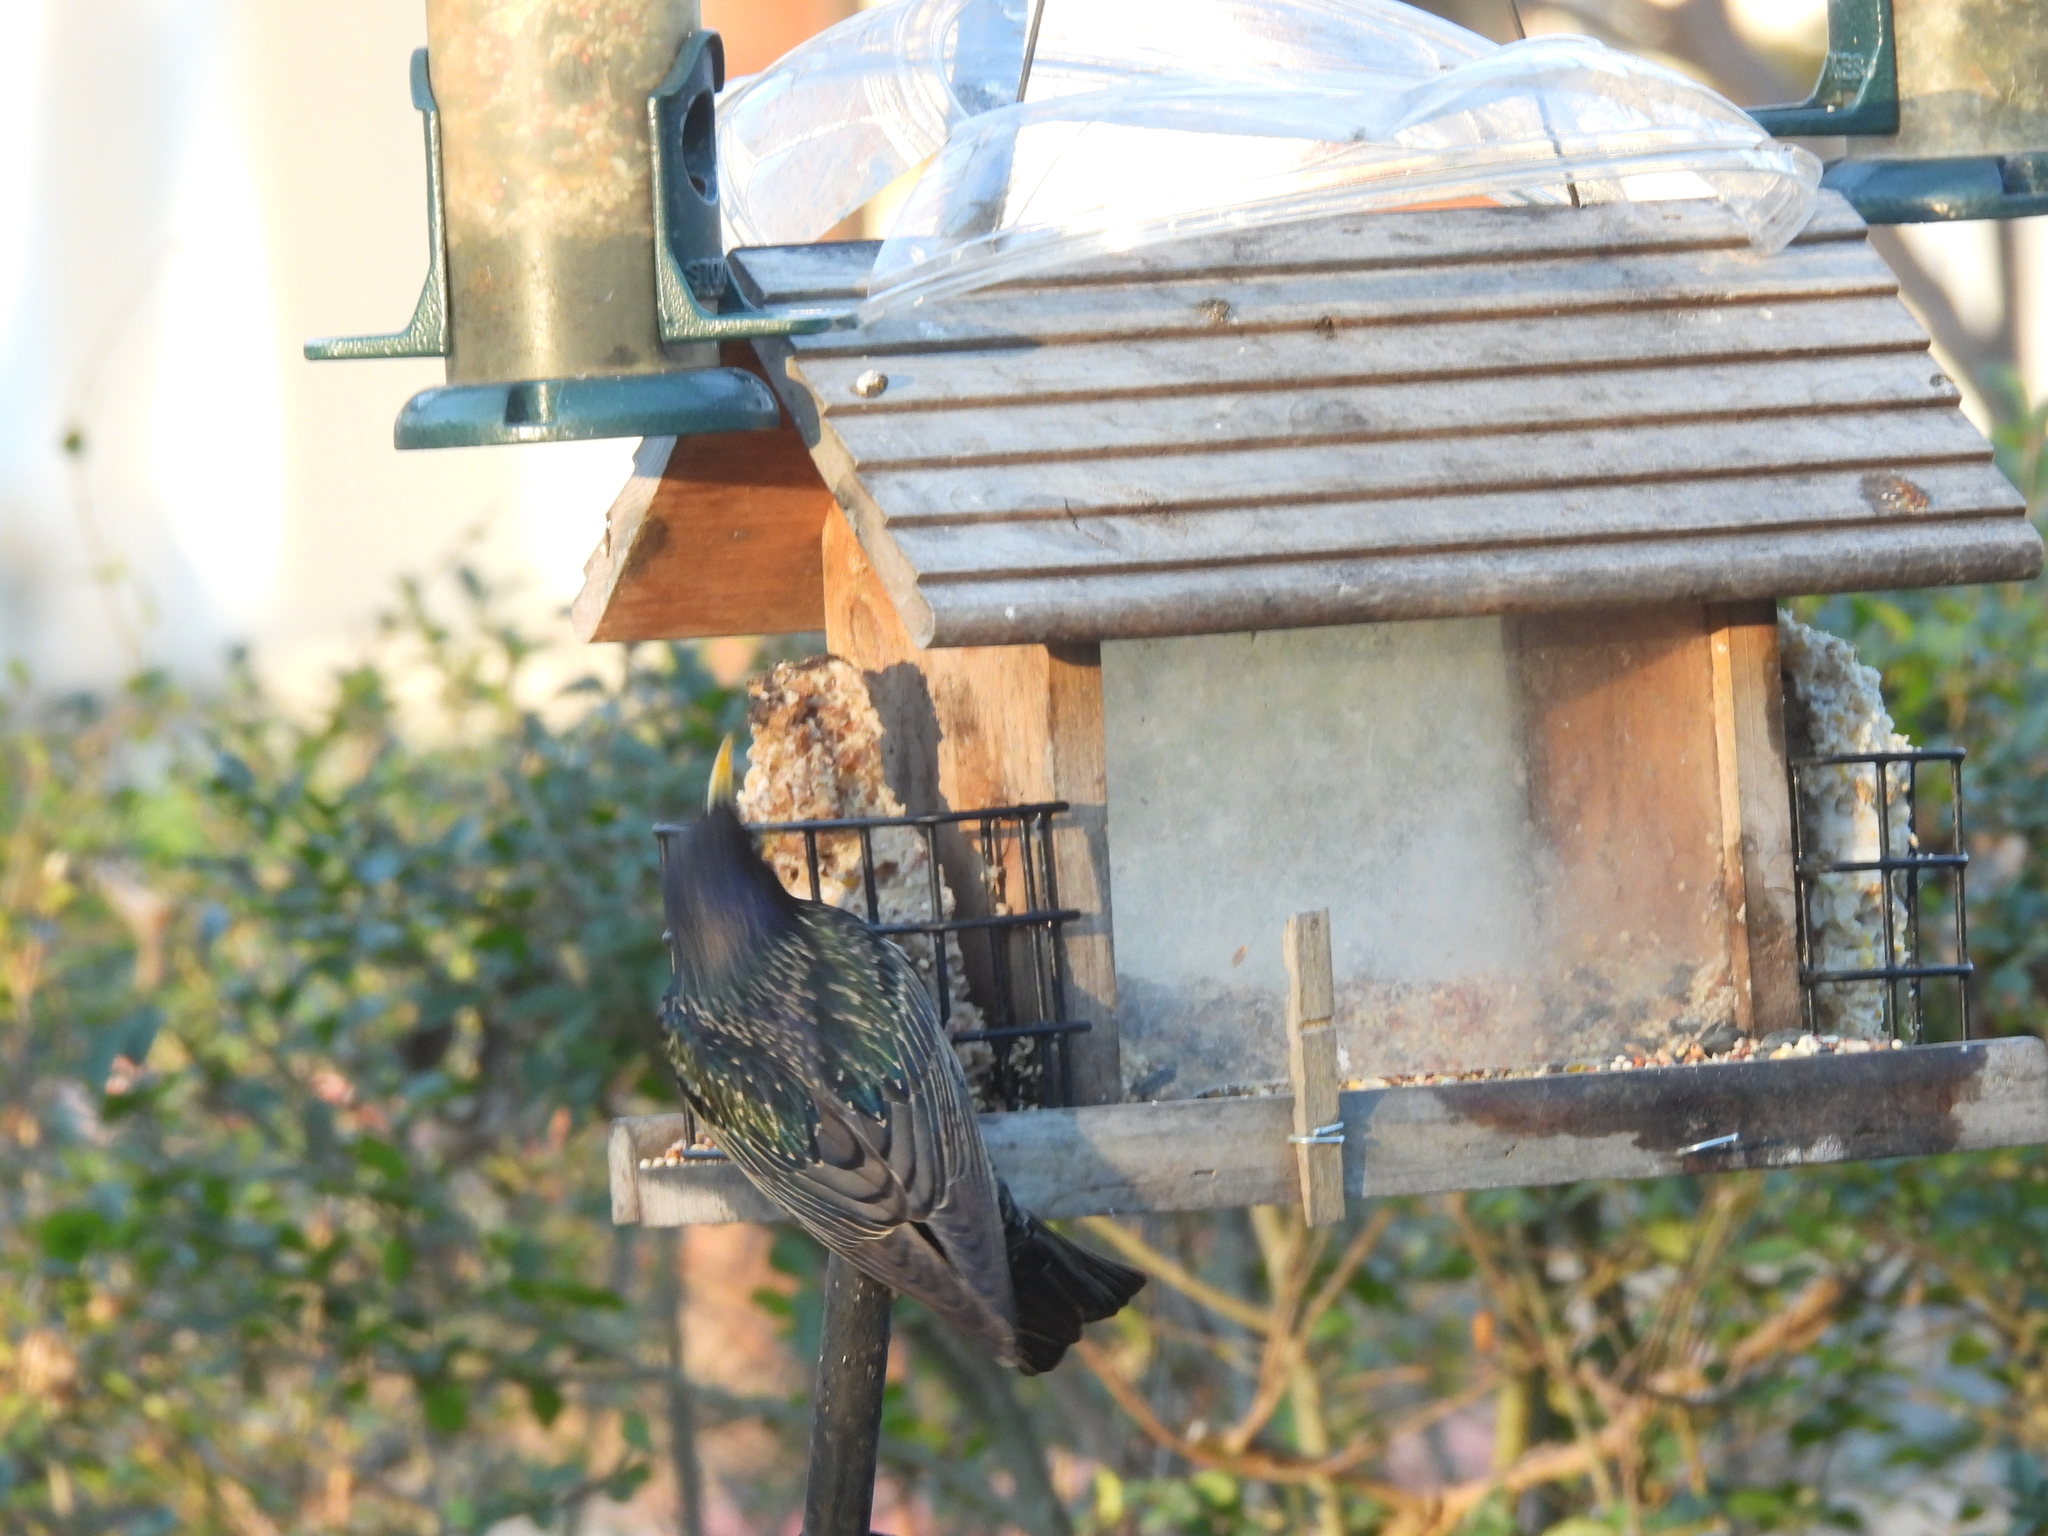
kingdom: Animalia
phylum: Chordata
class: Aves
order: Passeriformes
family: Sturnidae
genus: Sturnus
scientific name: Sturnus vulgaris
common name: Common starling
